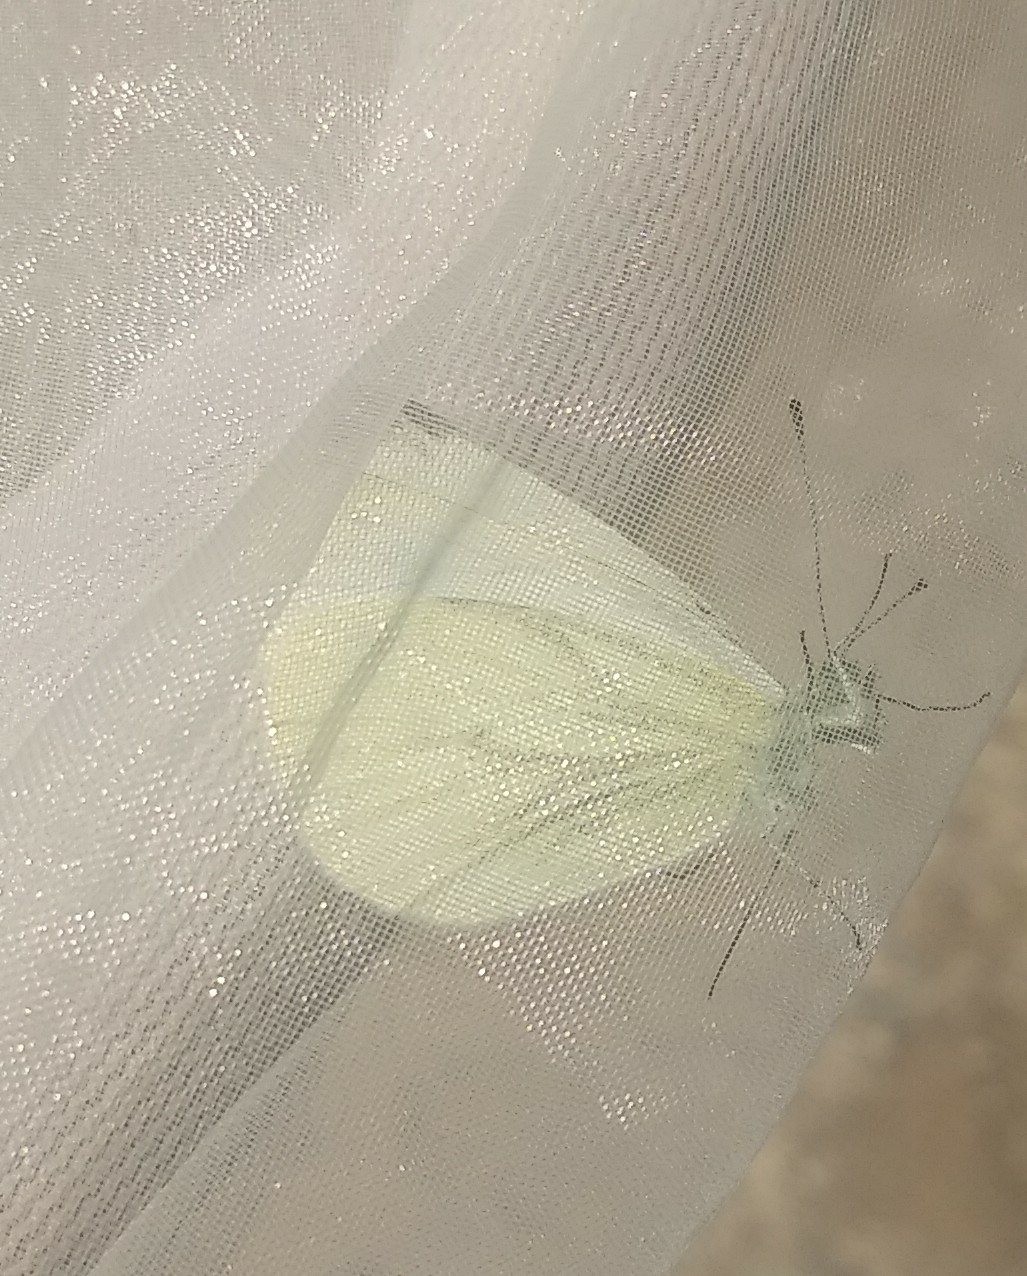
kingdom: Animalia
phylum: Arthropoda
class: Insecta
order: Lepidoptera
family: Pieridae
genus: Pieris
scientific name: Pieris napi
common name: Green-veined white
